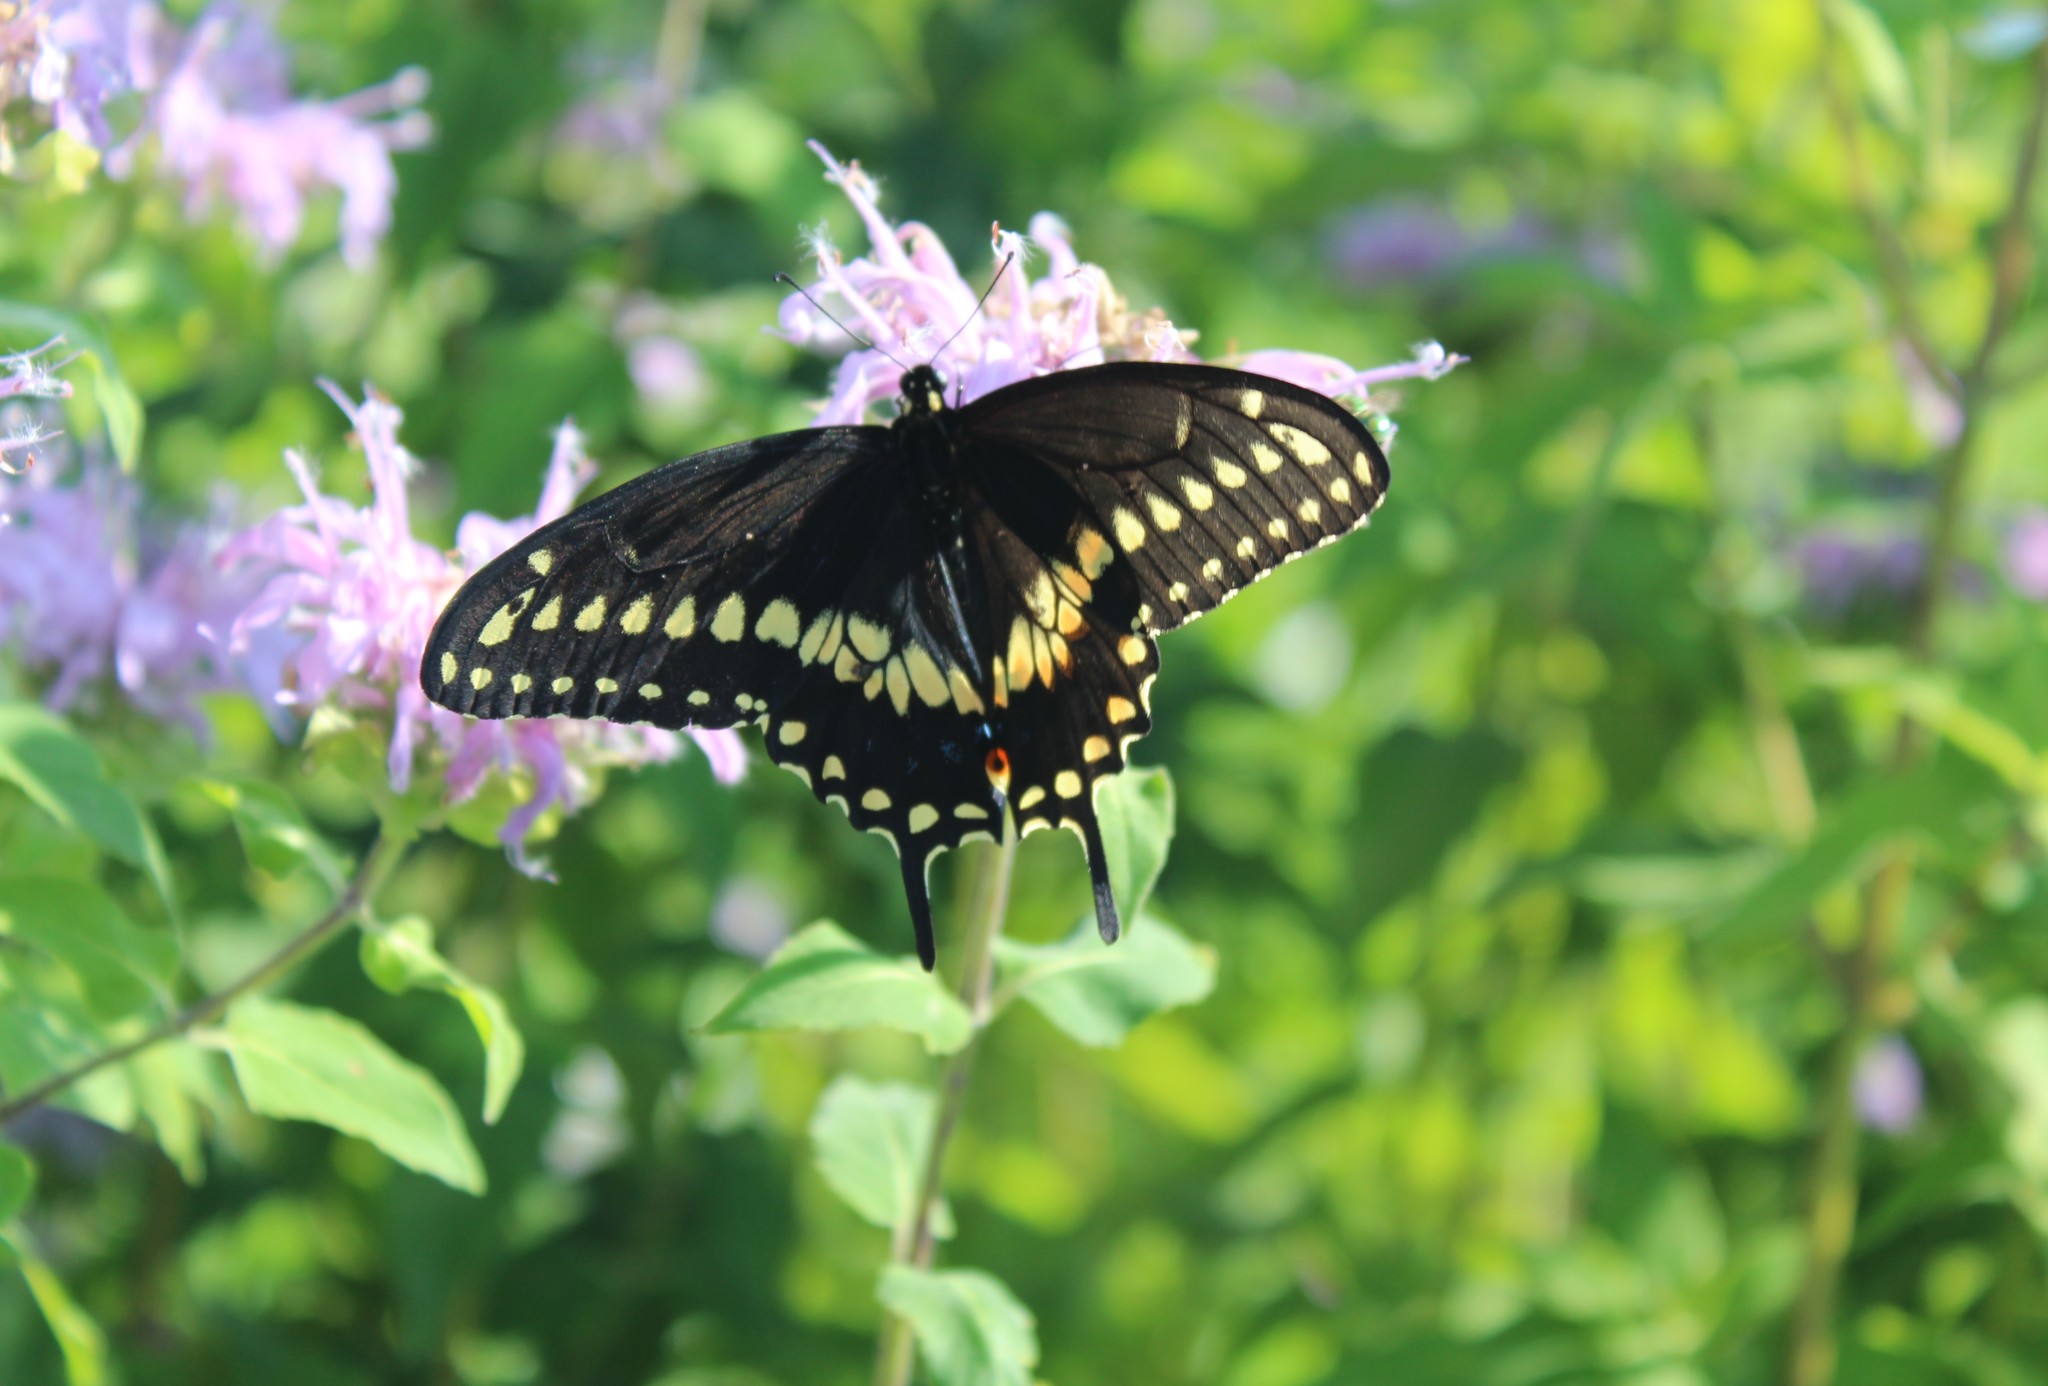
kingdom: Animalia
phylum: Arthropoda
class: Insecta
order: Lepidoptera
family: Papilionidae
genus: Papilio
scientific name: Papilio polyxenes
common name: Black swallowtail
